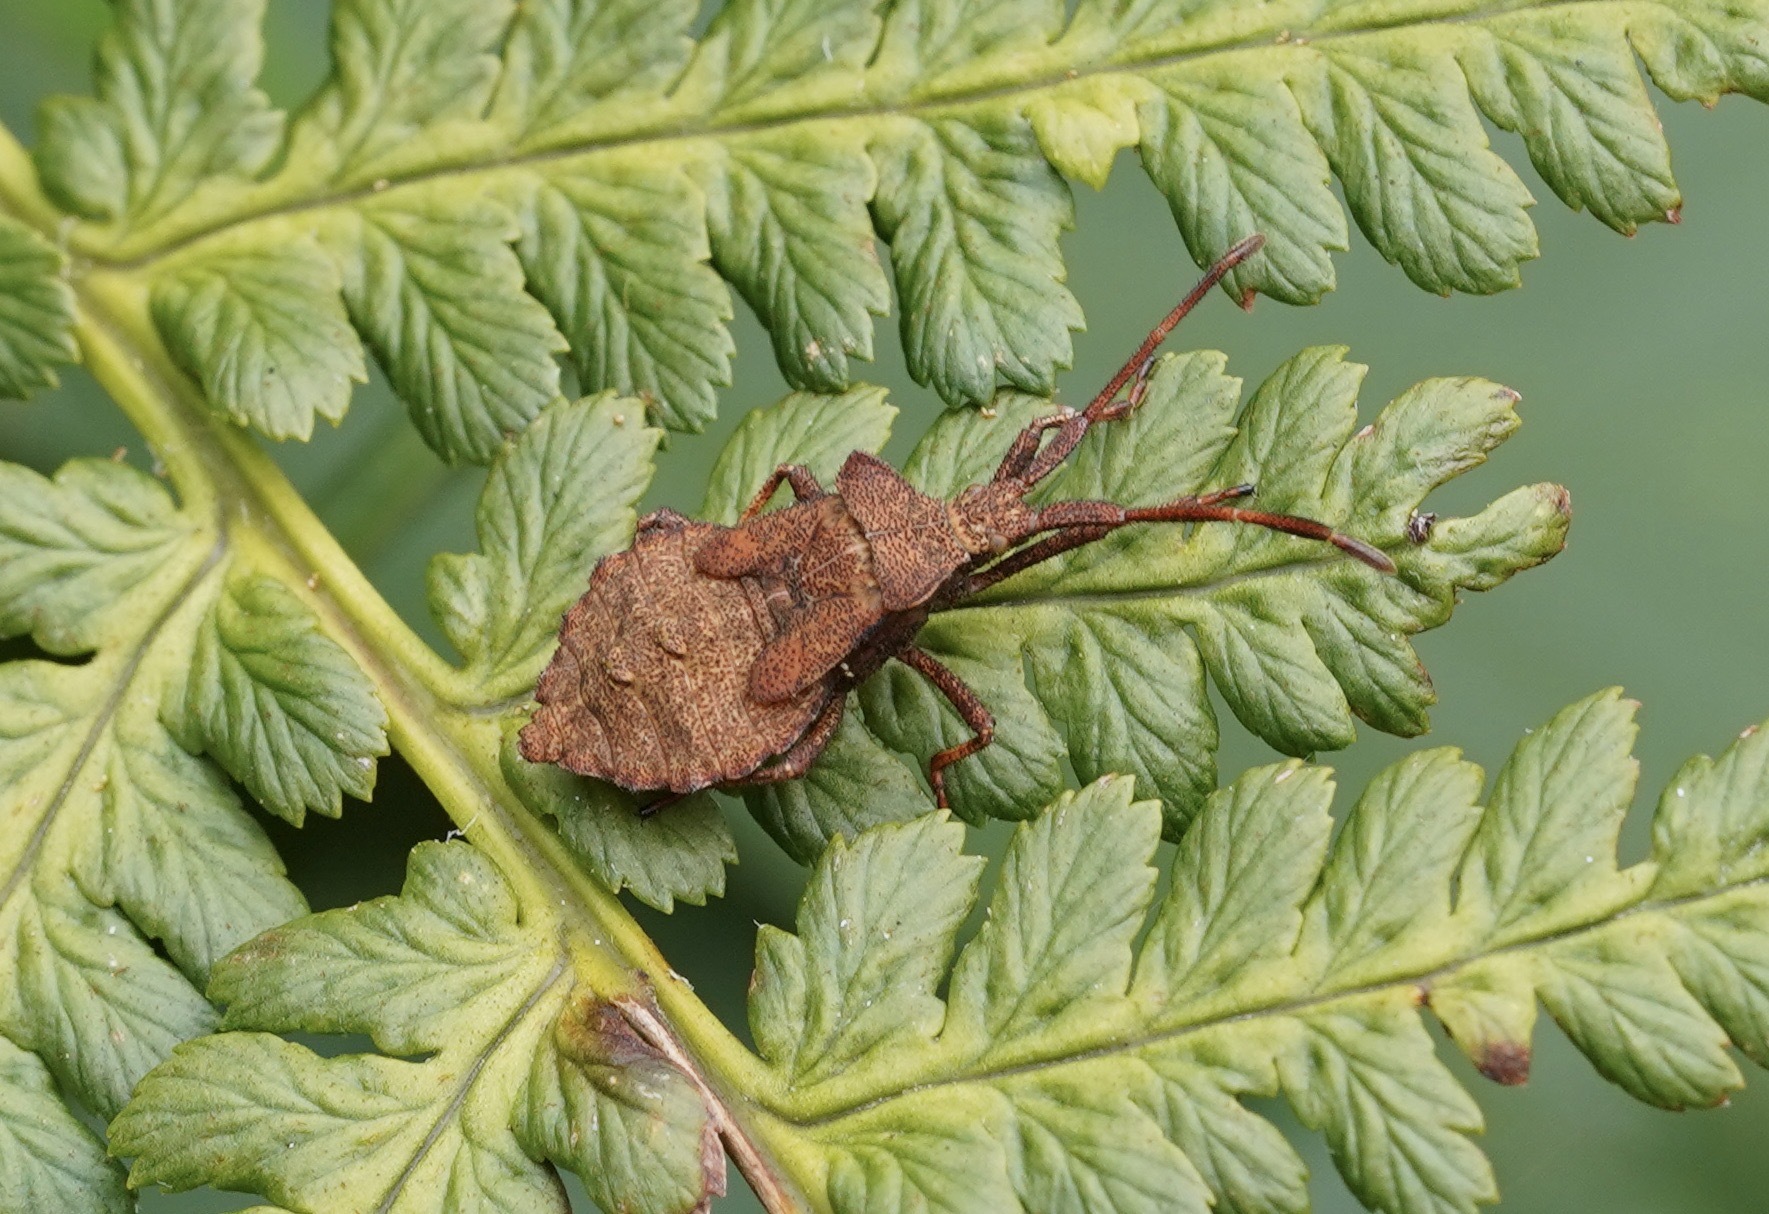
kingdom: Animalia
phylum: Arthropoda
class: Insecta
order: Hemiptera
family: Coreidae
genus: Coreus
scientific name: Coreus marginatus
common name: Dock bug
